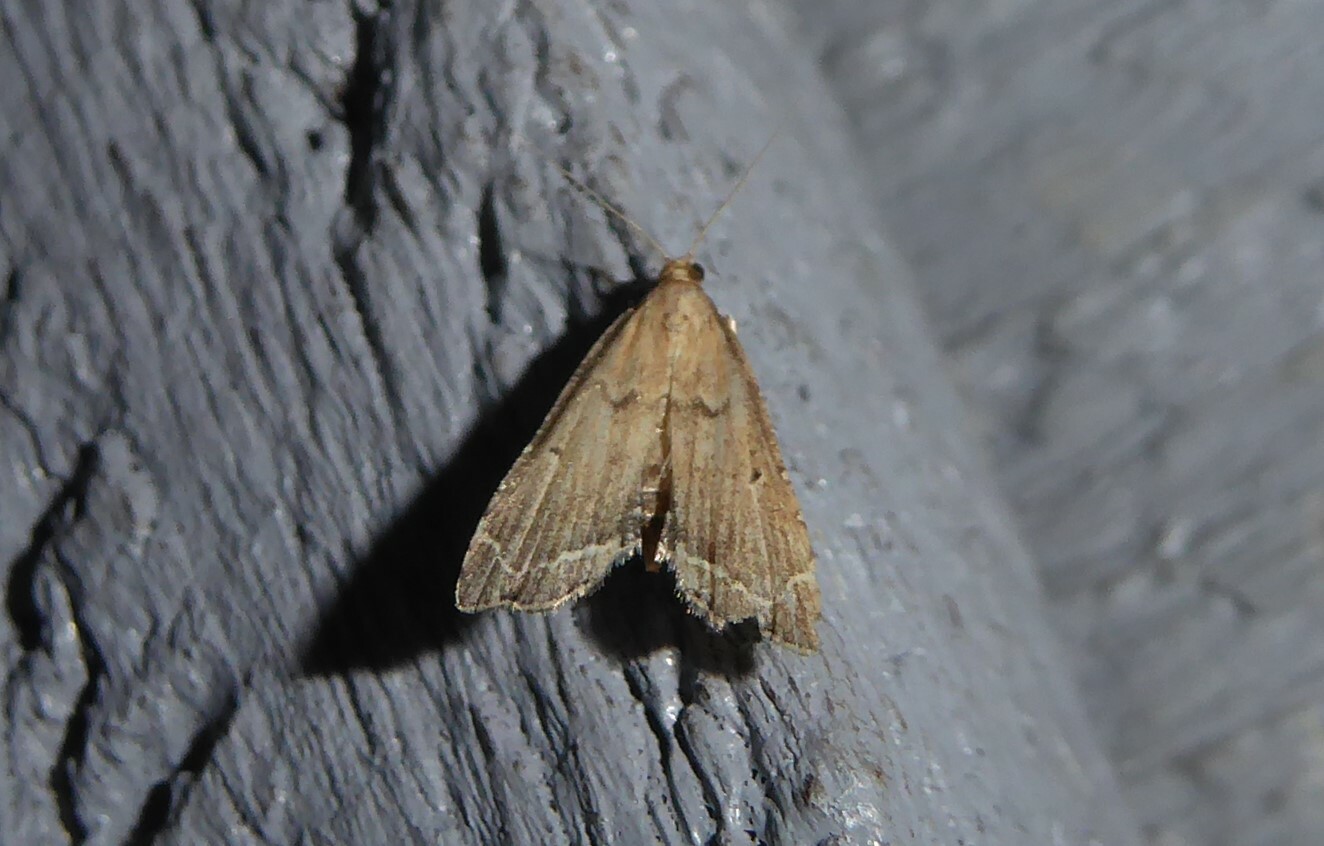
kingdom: Animalia
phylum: Arthropoda
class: Insecta
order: Lepidoptera
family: Crambidae
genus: Diplopseustis
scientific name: Diplopseustis perieresalis
